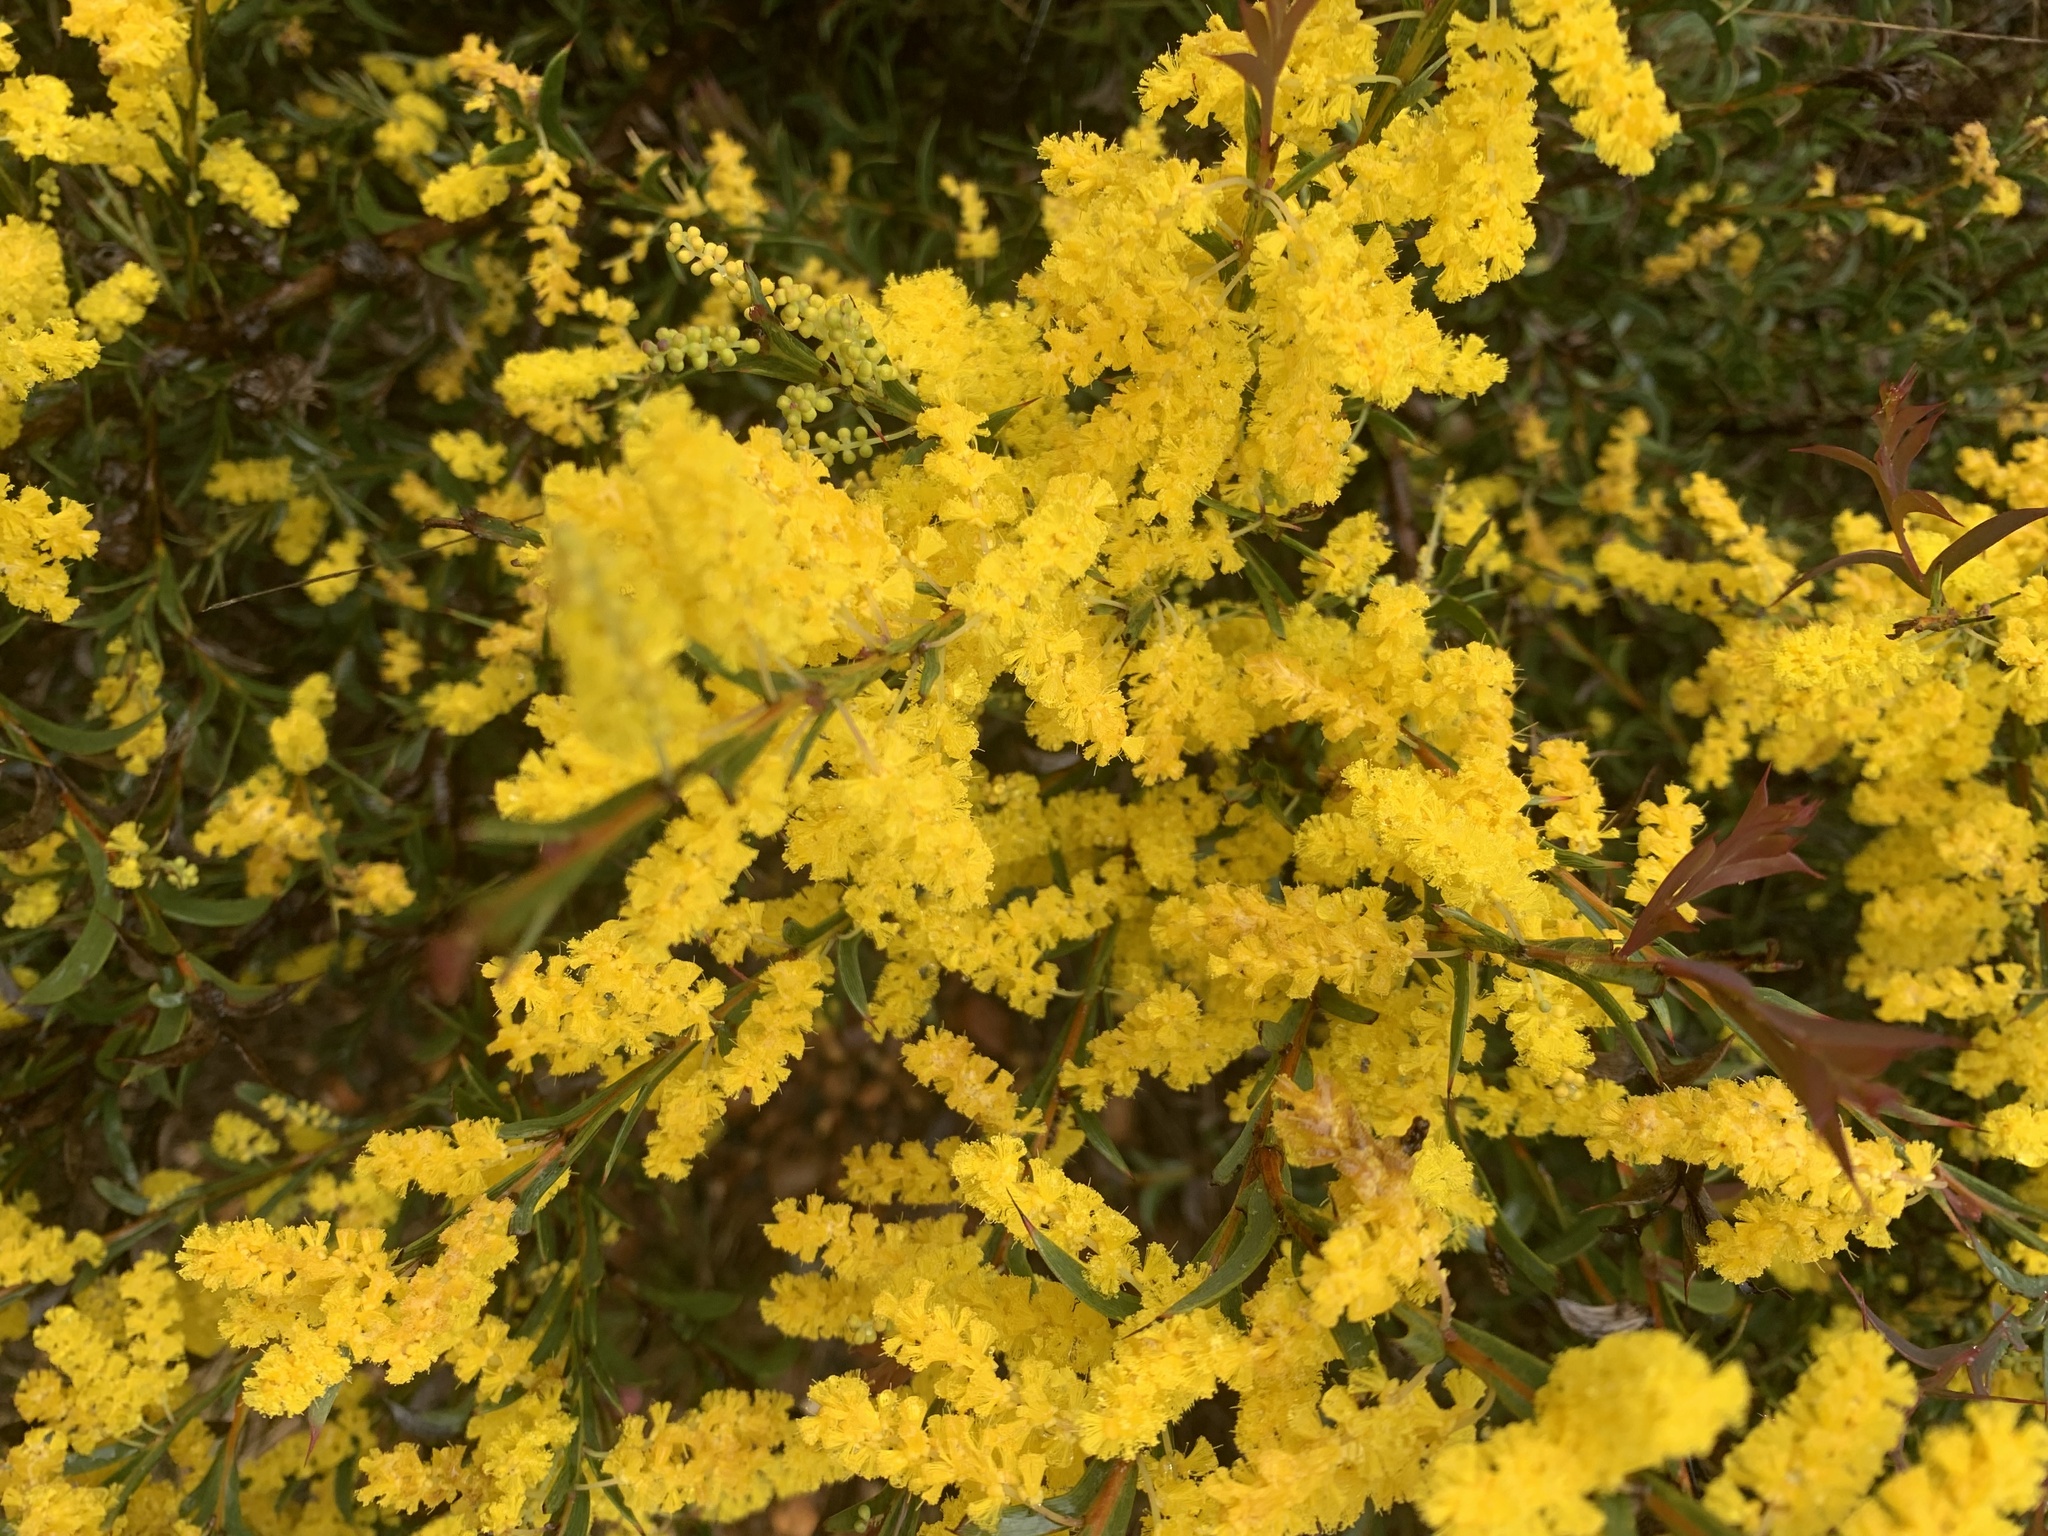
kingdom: Plantae
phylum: Tracheophyta
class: Magnoliopsida
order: Fabales
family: Fabaceae
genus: Acacia
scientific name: Acacia triptera
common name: Spur-wing wattle
